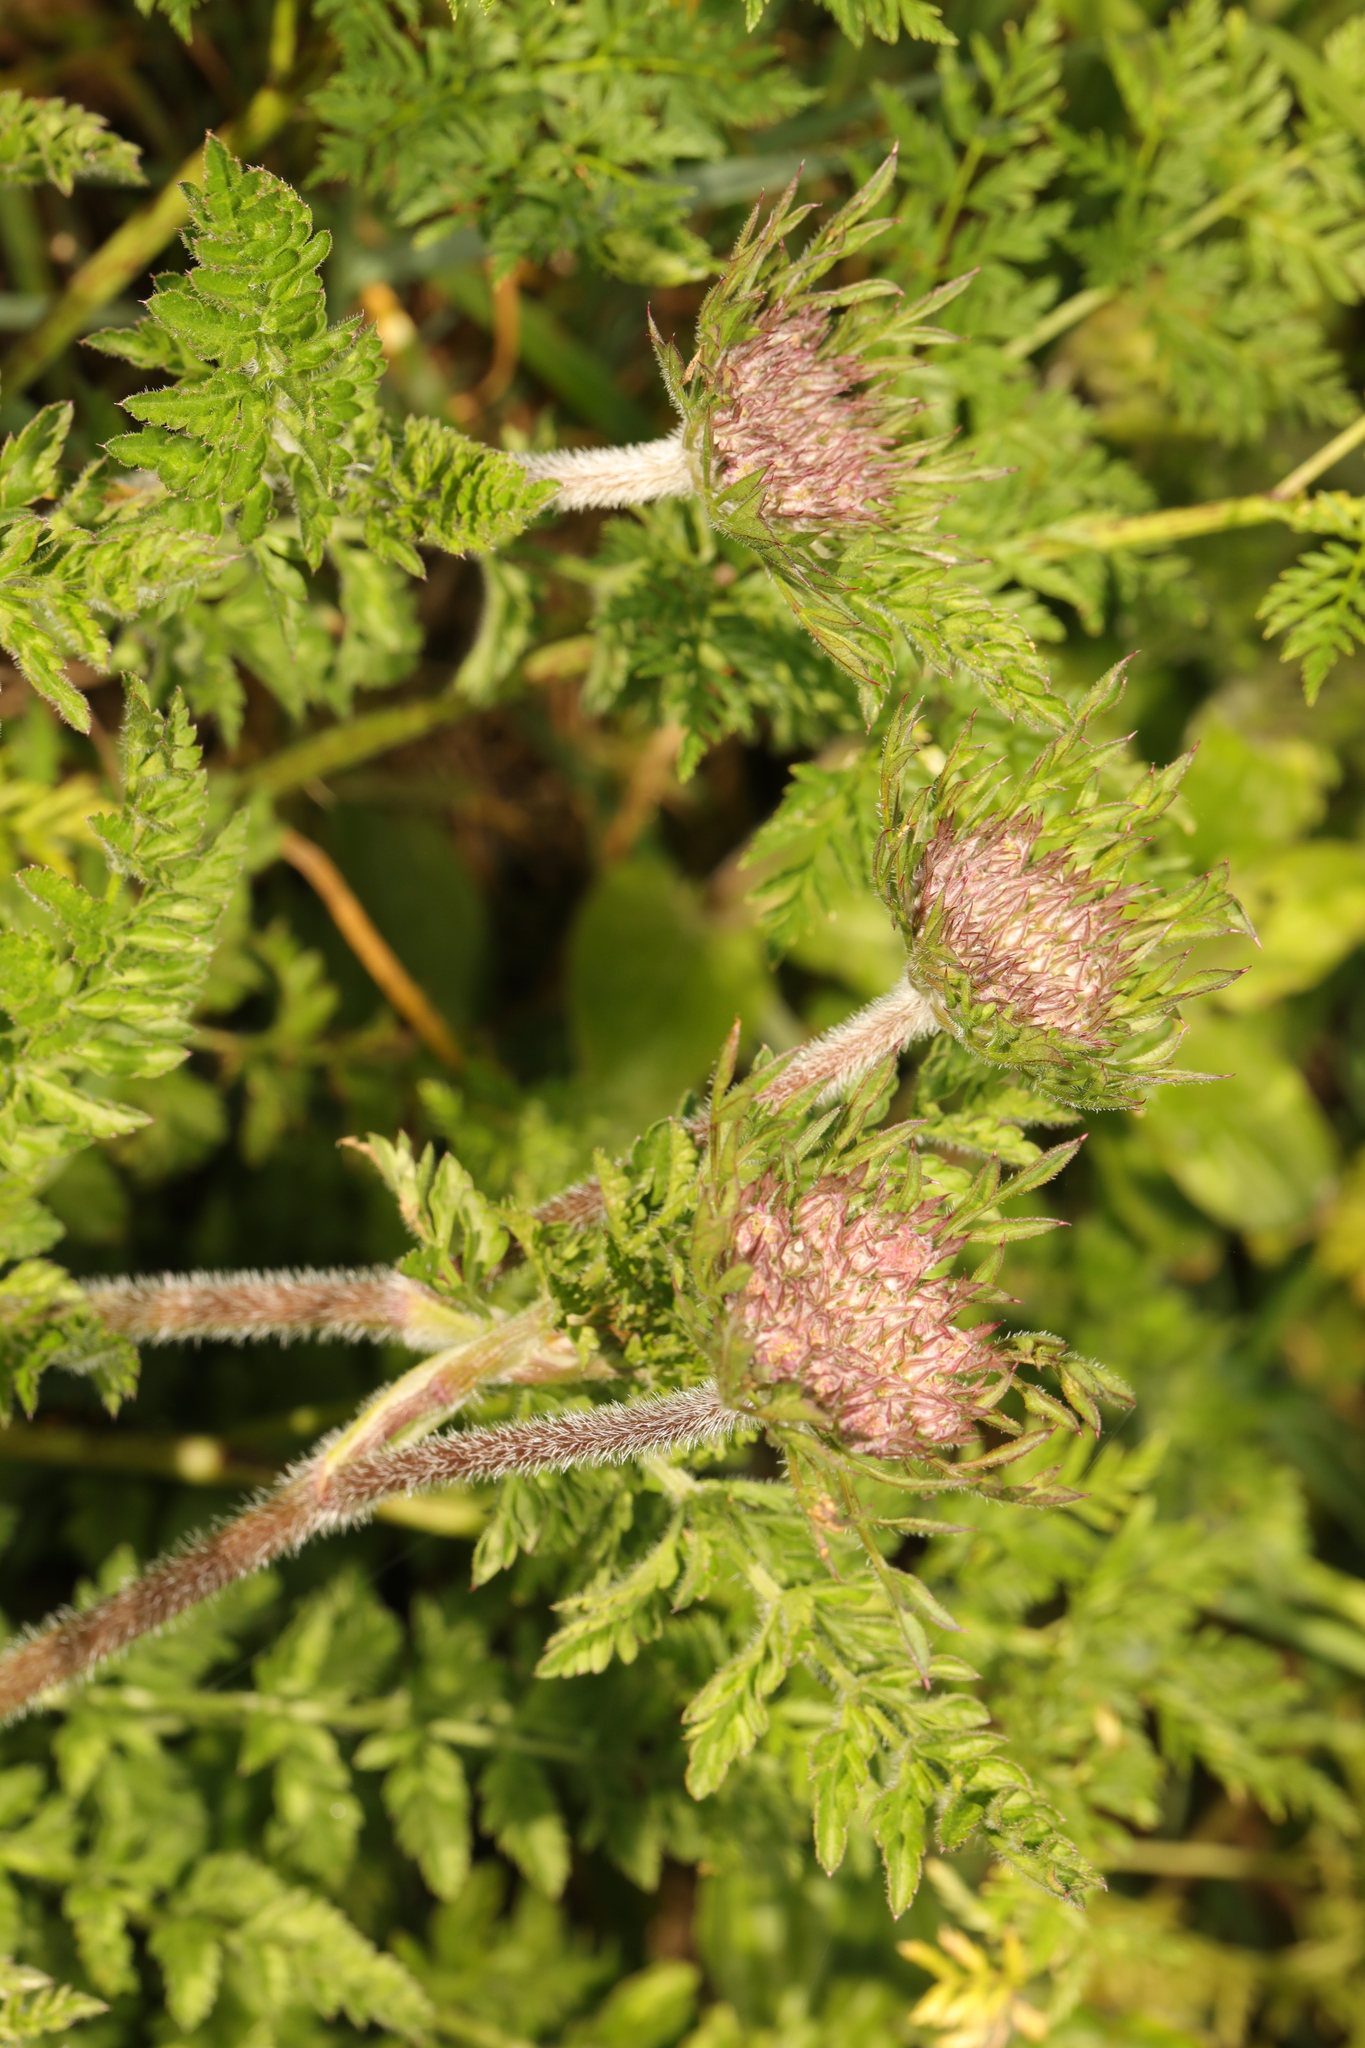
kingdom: Plantae
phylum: Tracheophyta
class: Magnoliopsida
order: Apiales
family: Apiaceae
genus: Daucus
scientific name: Daucus carota
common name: Wild carrot
